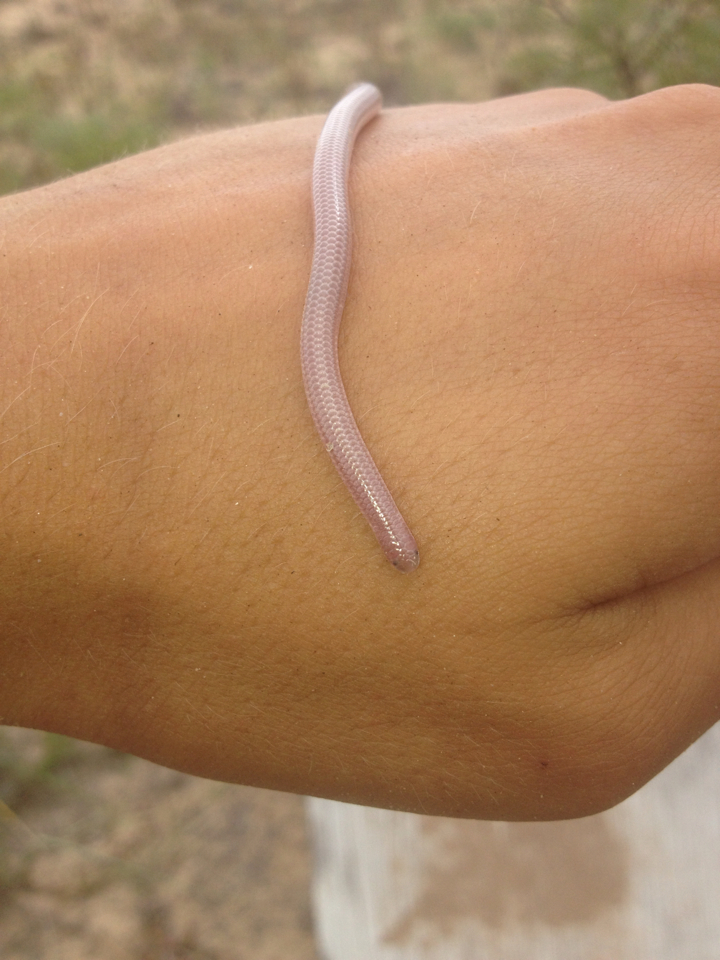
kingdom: Animalia
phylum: Chordata
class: Squamata
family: Leptotyphlopidae
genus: Rena
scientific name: Rena dulcis
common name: Texas blind snake
